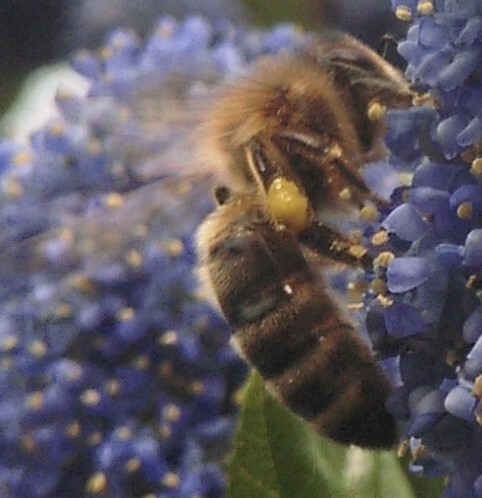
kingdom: Animalia
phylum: Arthropoda
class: Insecta
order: Hymenoptera
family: Apidae
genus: Apis
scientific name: Apis mellifera
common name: Honey bee
